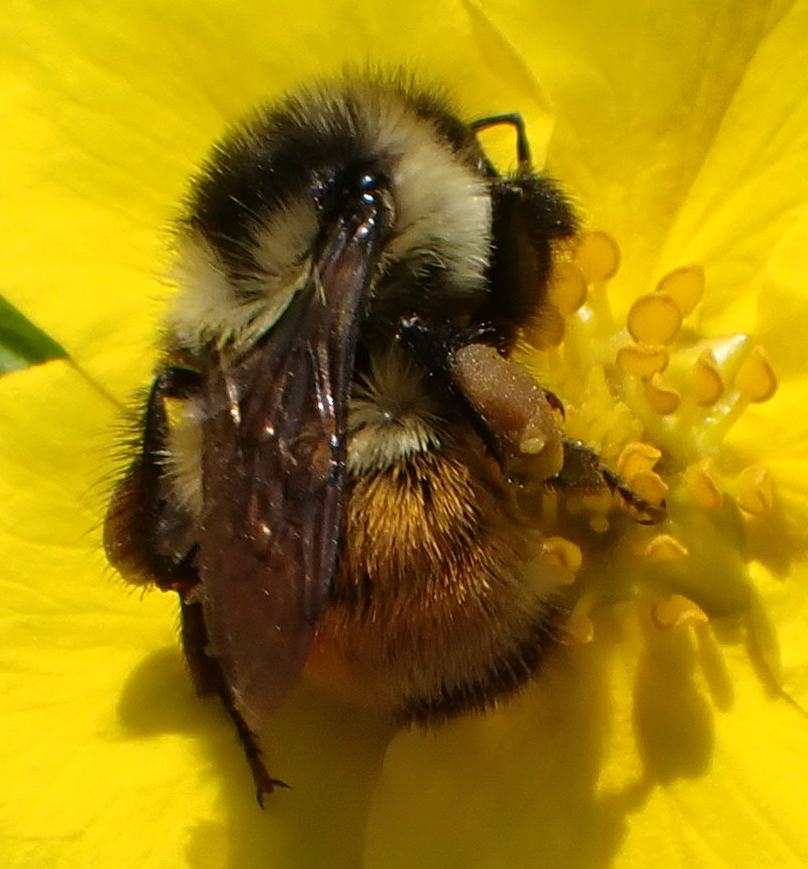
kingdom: Animalia
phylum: Arthropoda
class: Insecta
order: Hymenoptera
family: Apidae
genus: Bombus
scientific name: Bombus ternarius
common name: Tri-colored bumble bee
